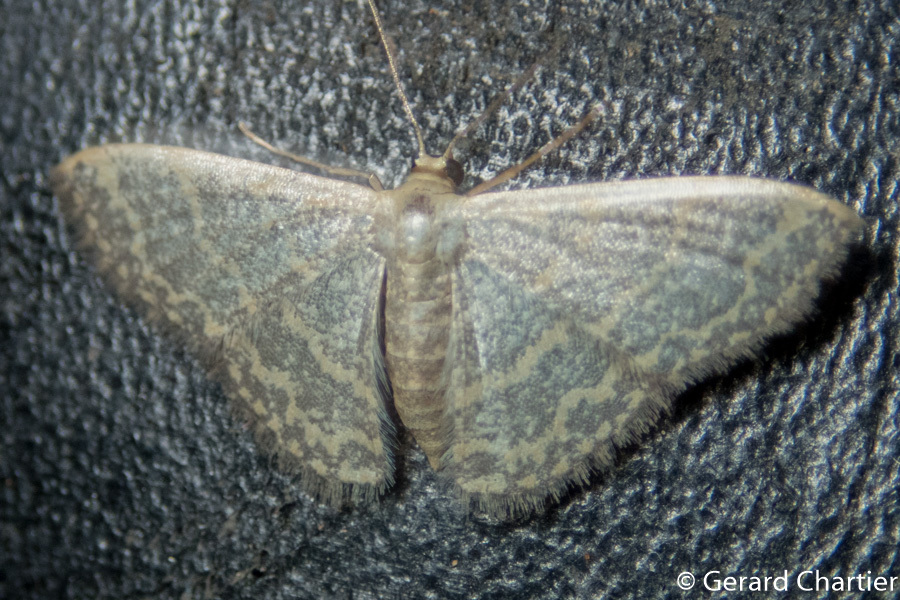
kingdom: Animalia
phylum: Arthropoda
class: Insecta
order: Lepidoptera
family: Geometridae
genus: Idaea
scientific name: Idaea costiguttata
